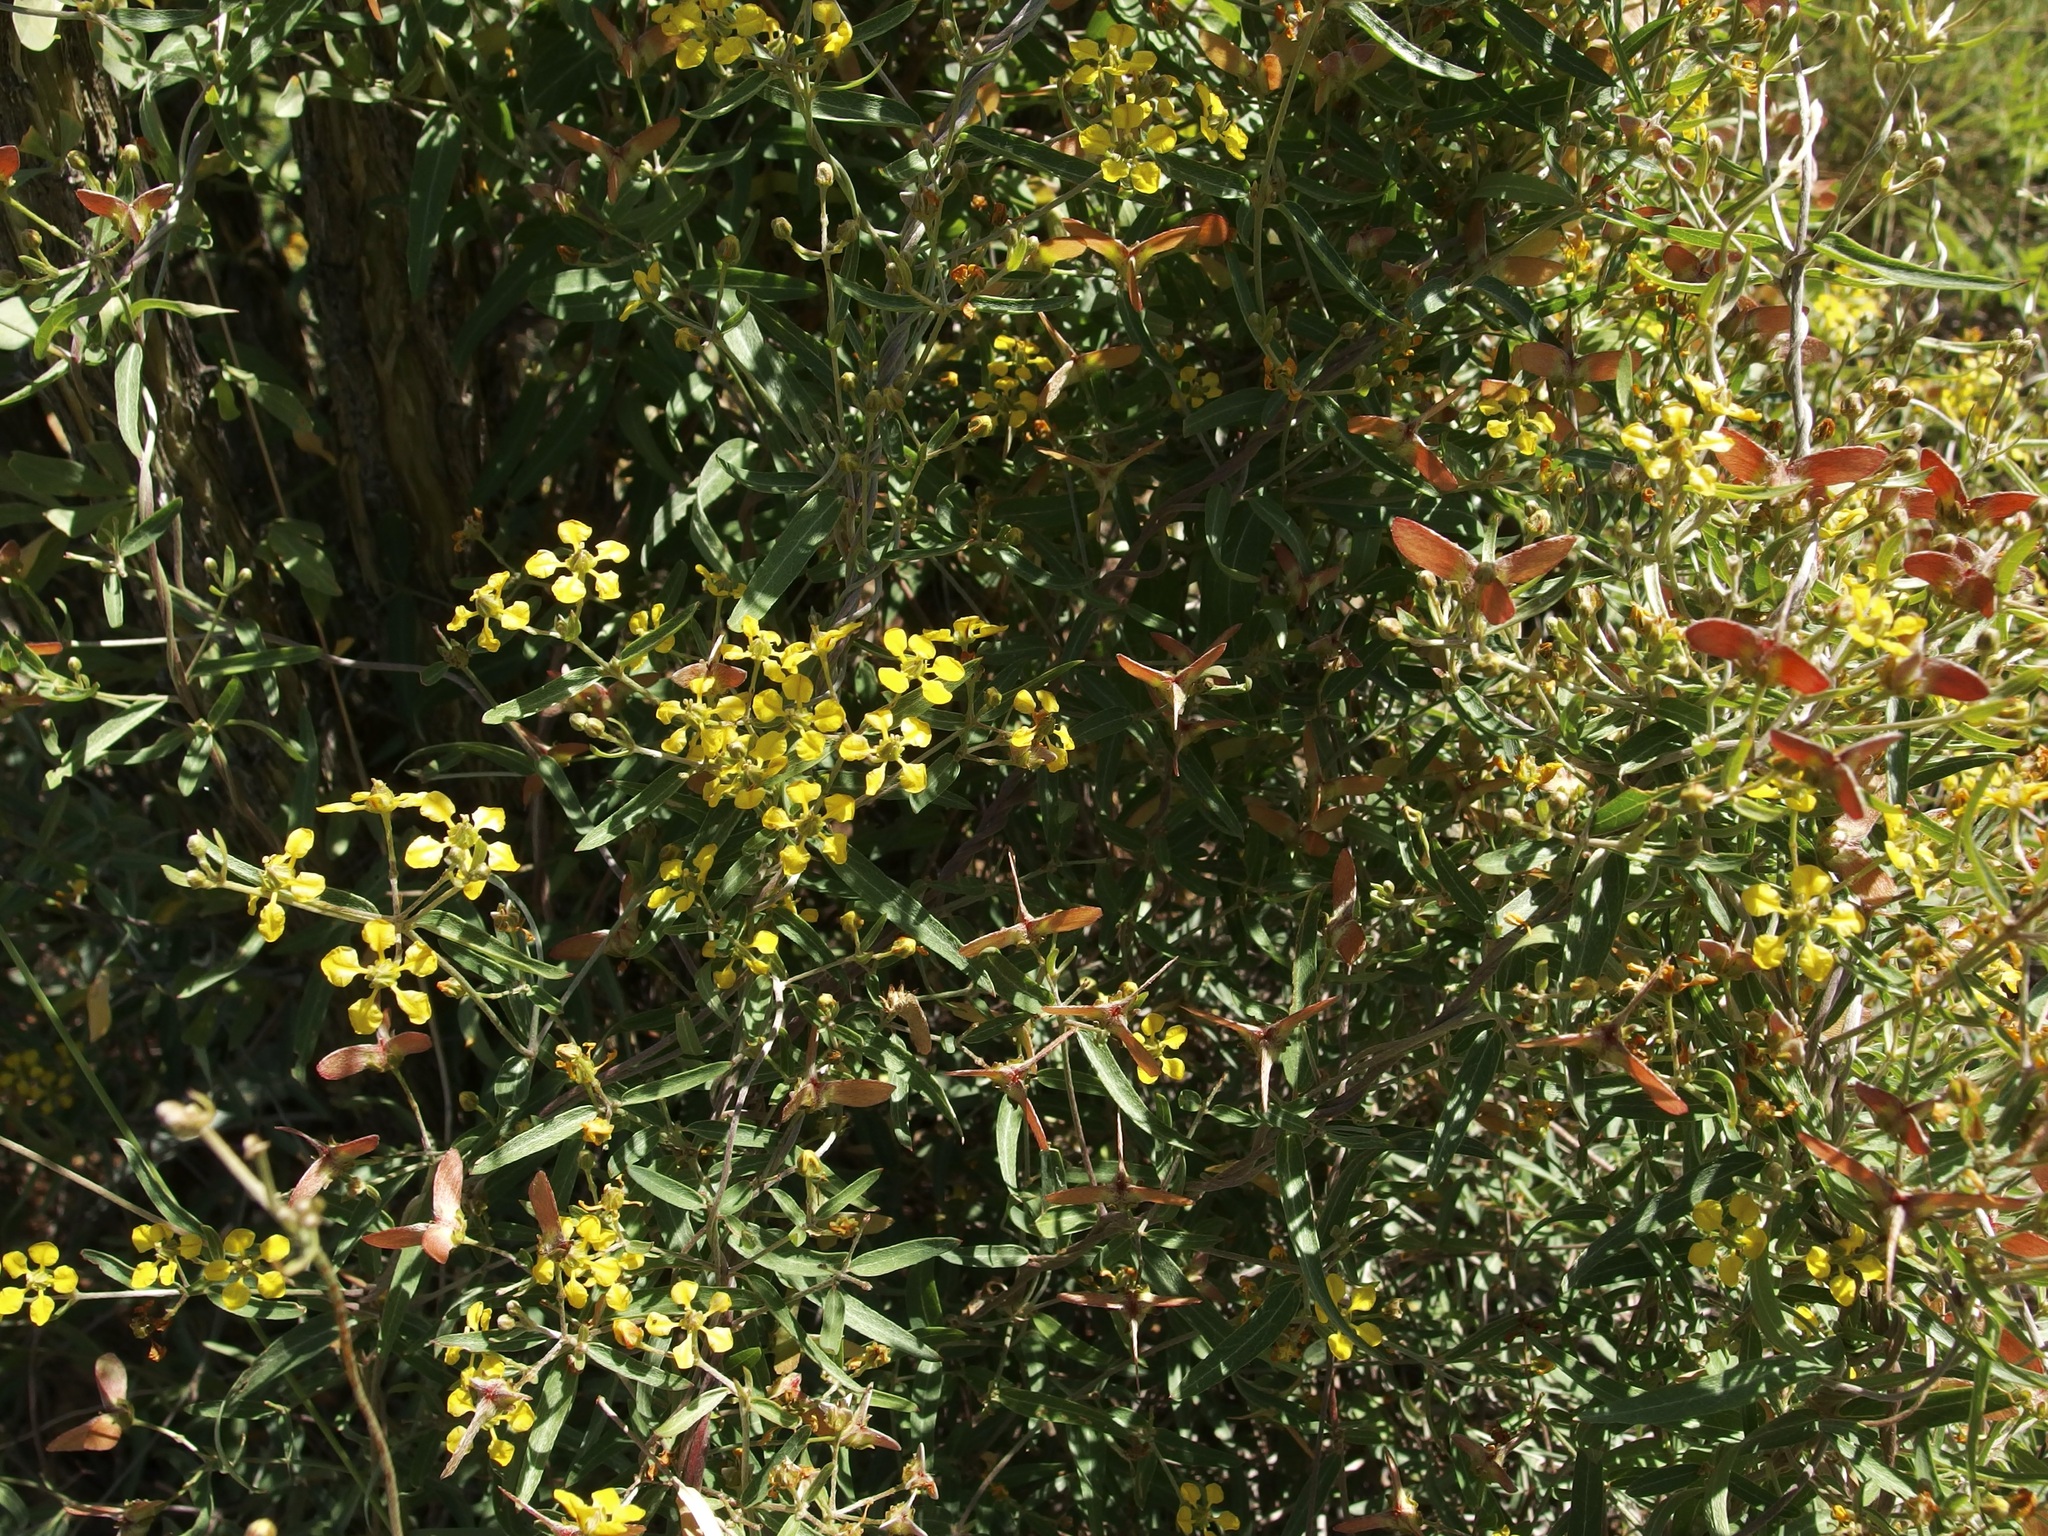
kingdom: Plantae
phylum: Tracheophyta
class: Magnoliopsida
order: Malpighiales
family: Malpighiaceae
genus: Cottsia
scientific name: Cottsia gracilis
